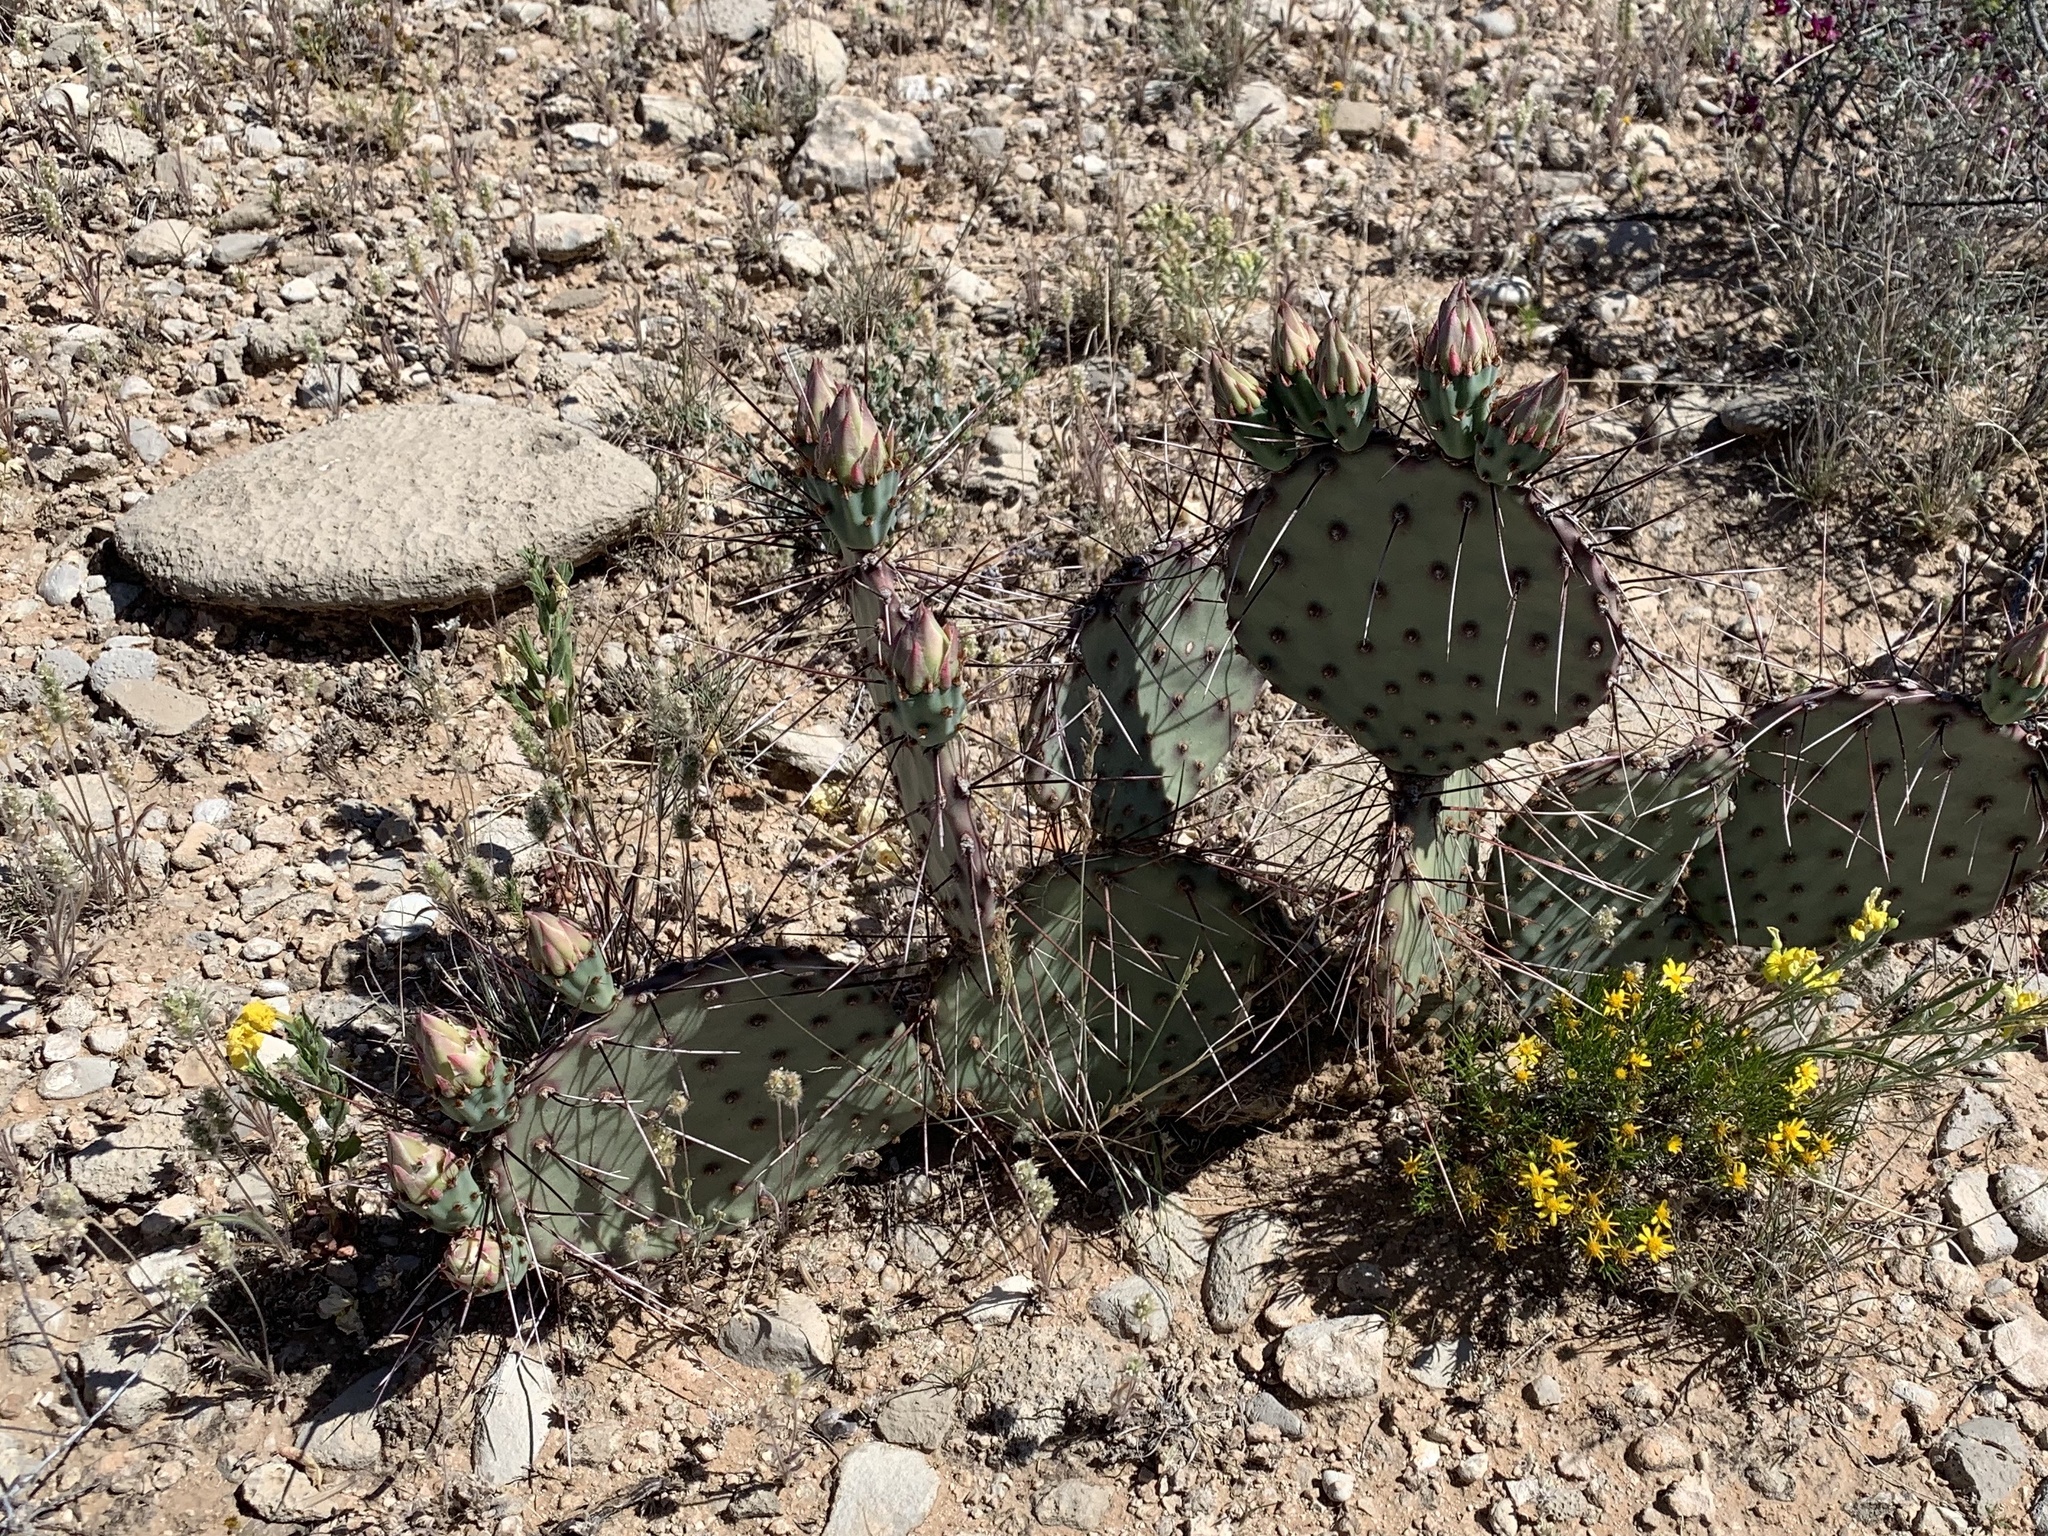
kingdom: Plantae
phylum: Tracheophyta
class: Magnoliopsida
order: Caryophyllales
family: Cactaceae
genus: Opuntia
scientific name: Opuntia macrocentra
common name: Purple prickly-pear
